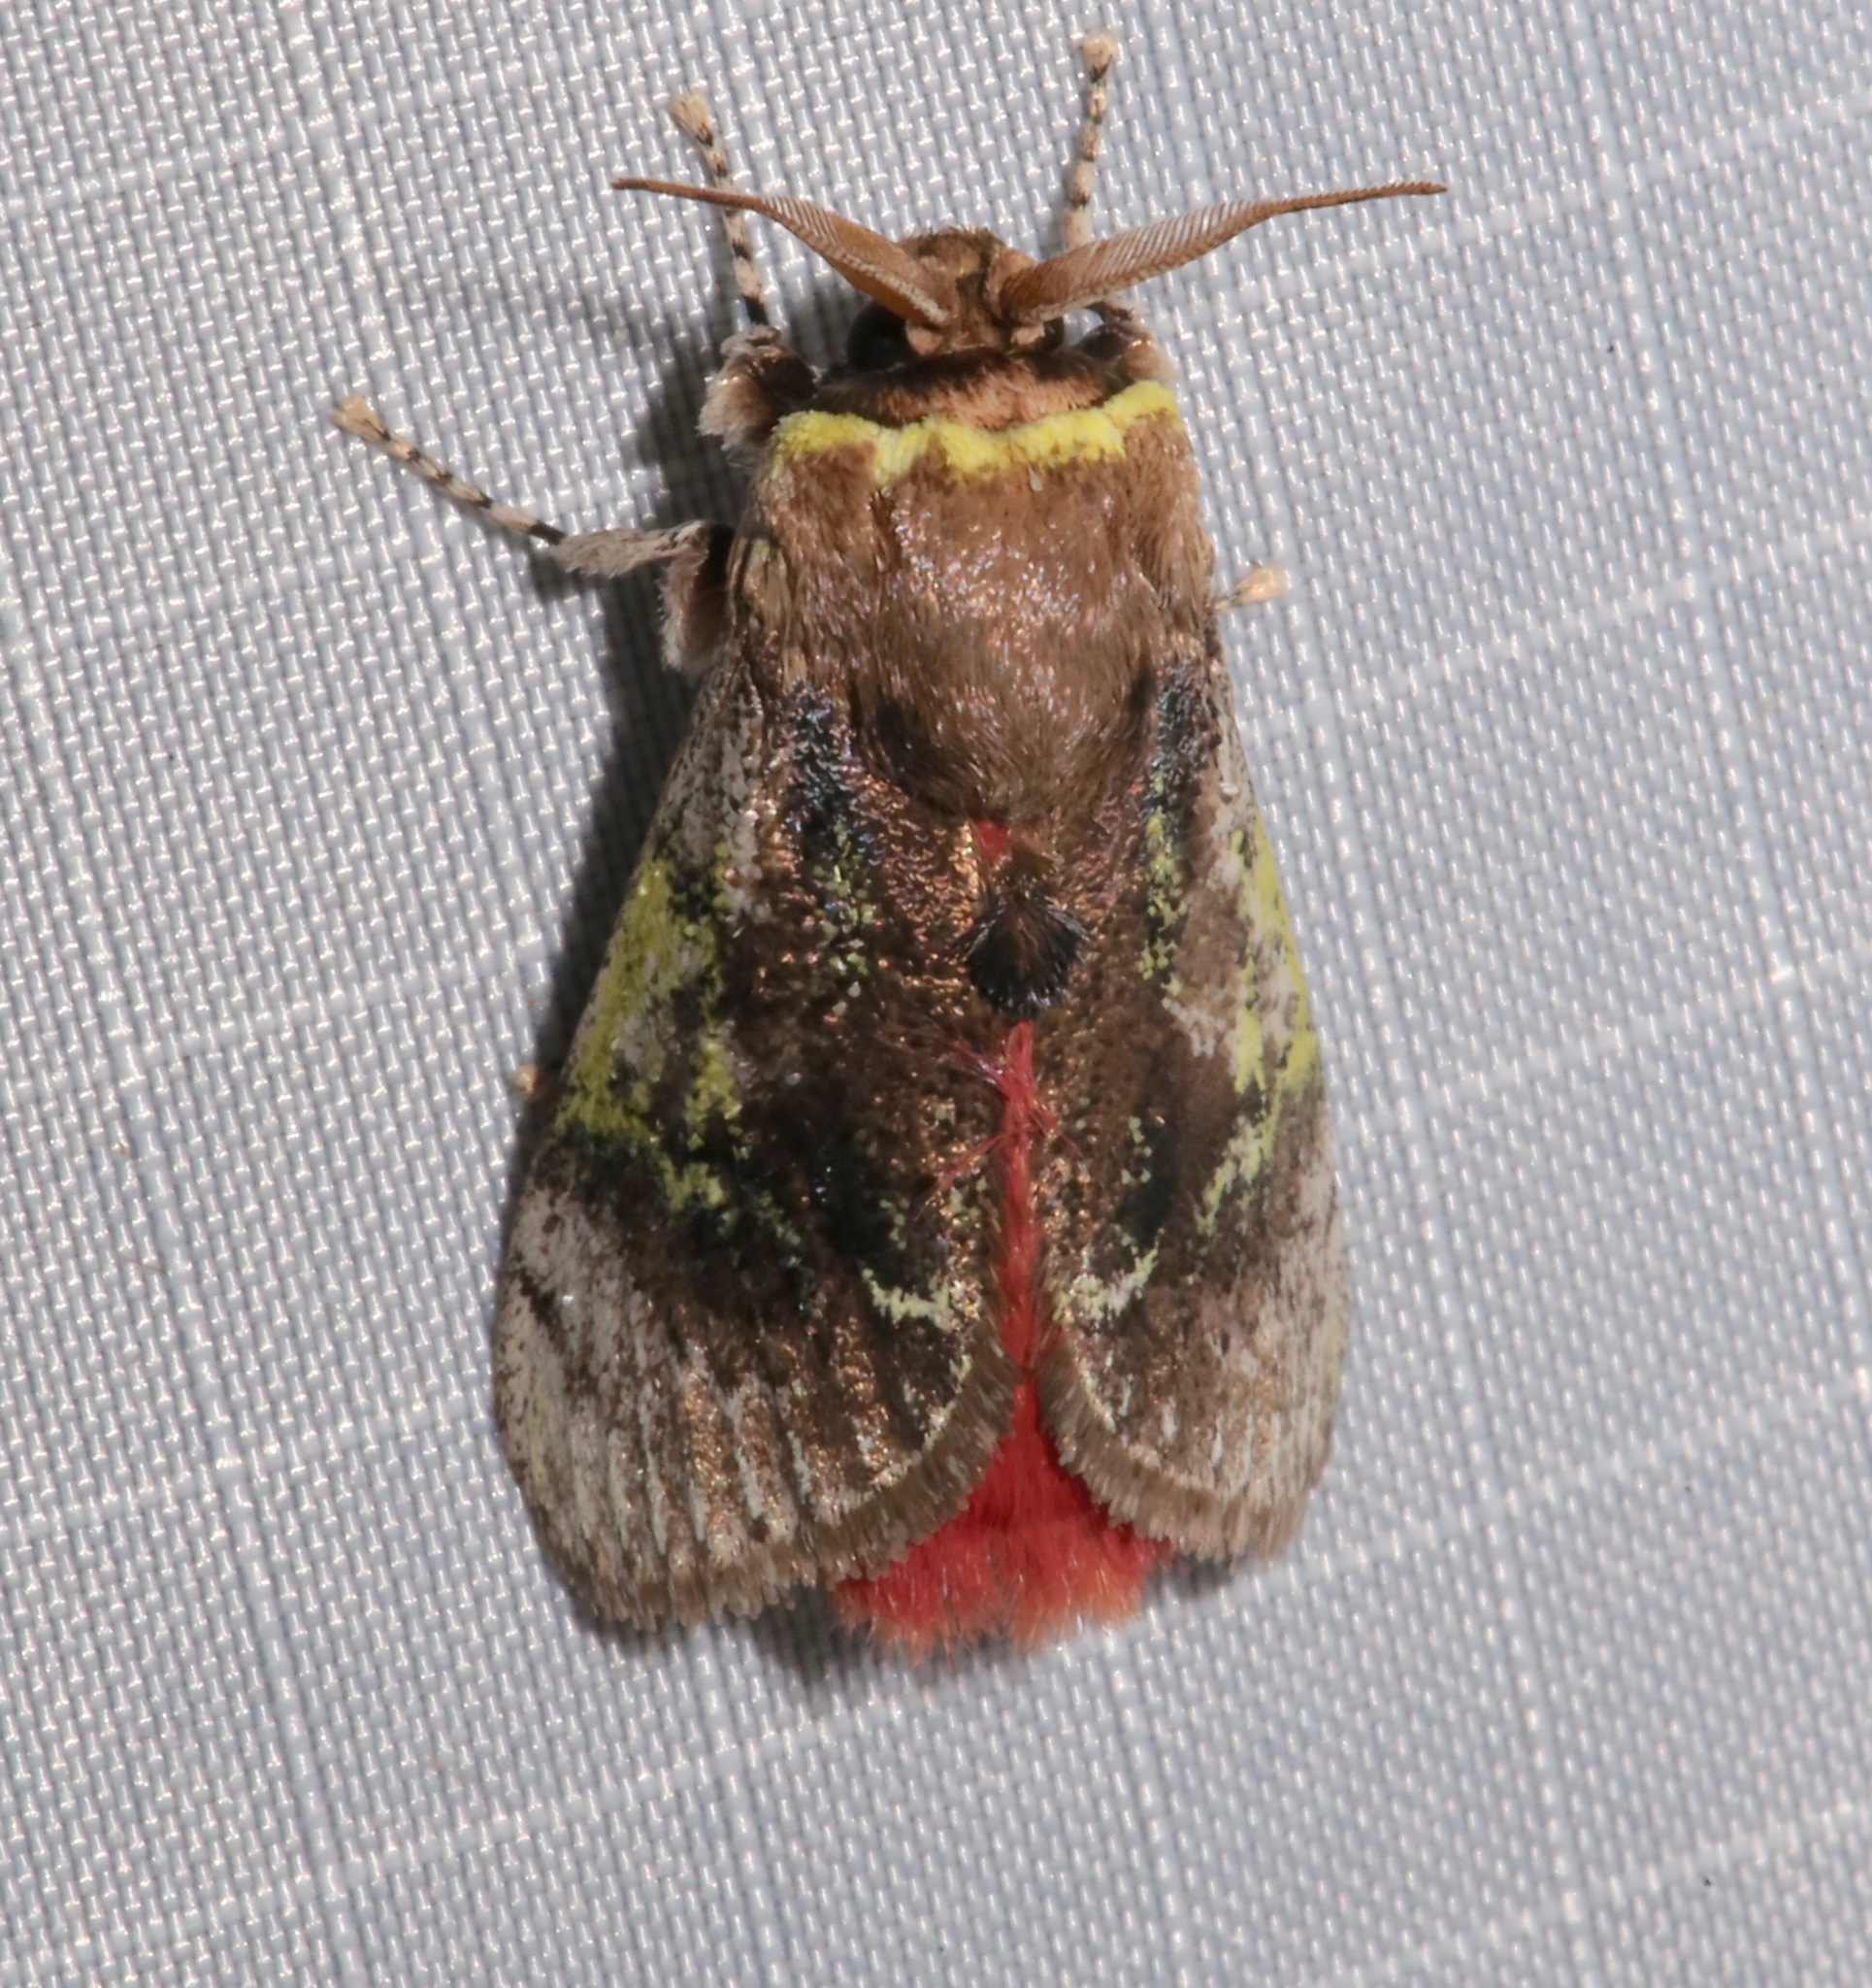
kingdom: Animalia
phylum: Arthropoda
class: Insecta
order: Lepidoptera
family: Aididae
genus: Aidos
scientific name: Aidos yamouna
